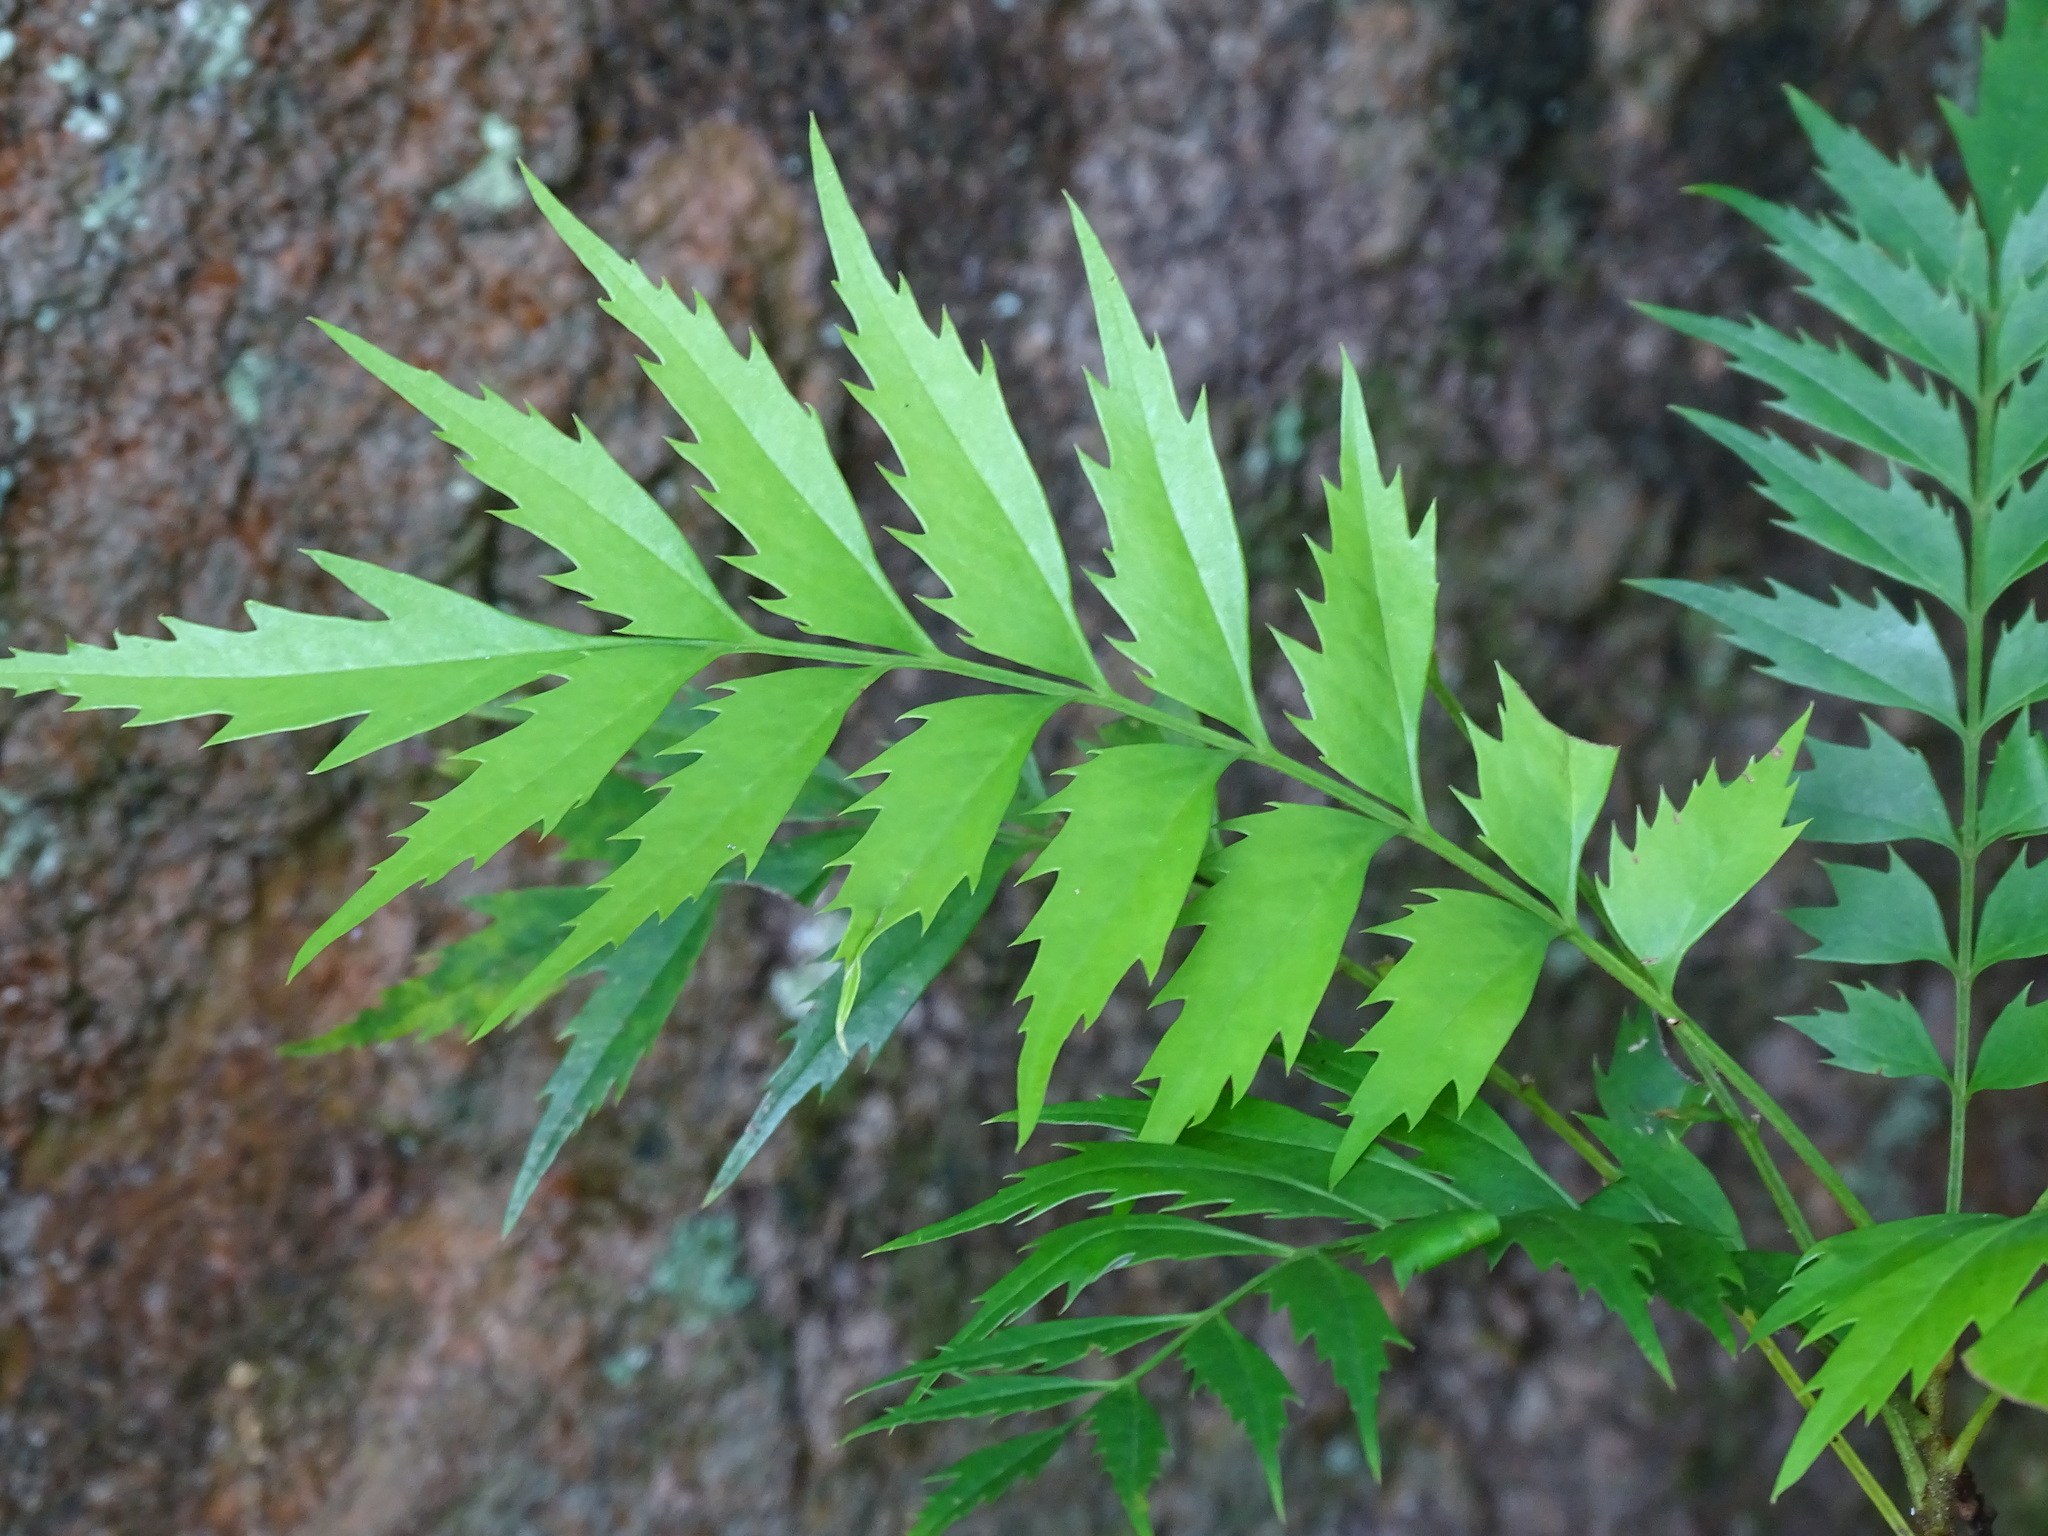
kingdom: Plantae
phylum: Tracheophyta
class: Magnoliopsida
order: Proteales
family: Proteaceae
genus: Roupala
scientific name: Roupala montana
